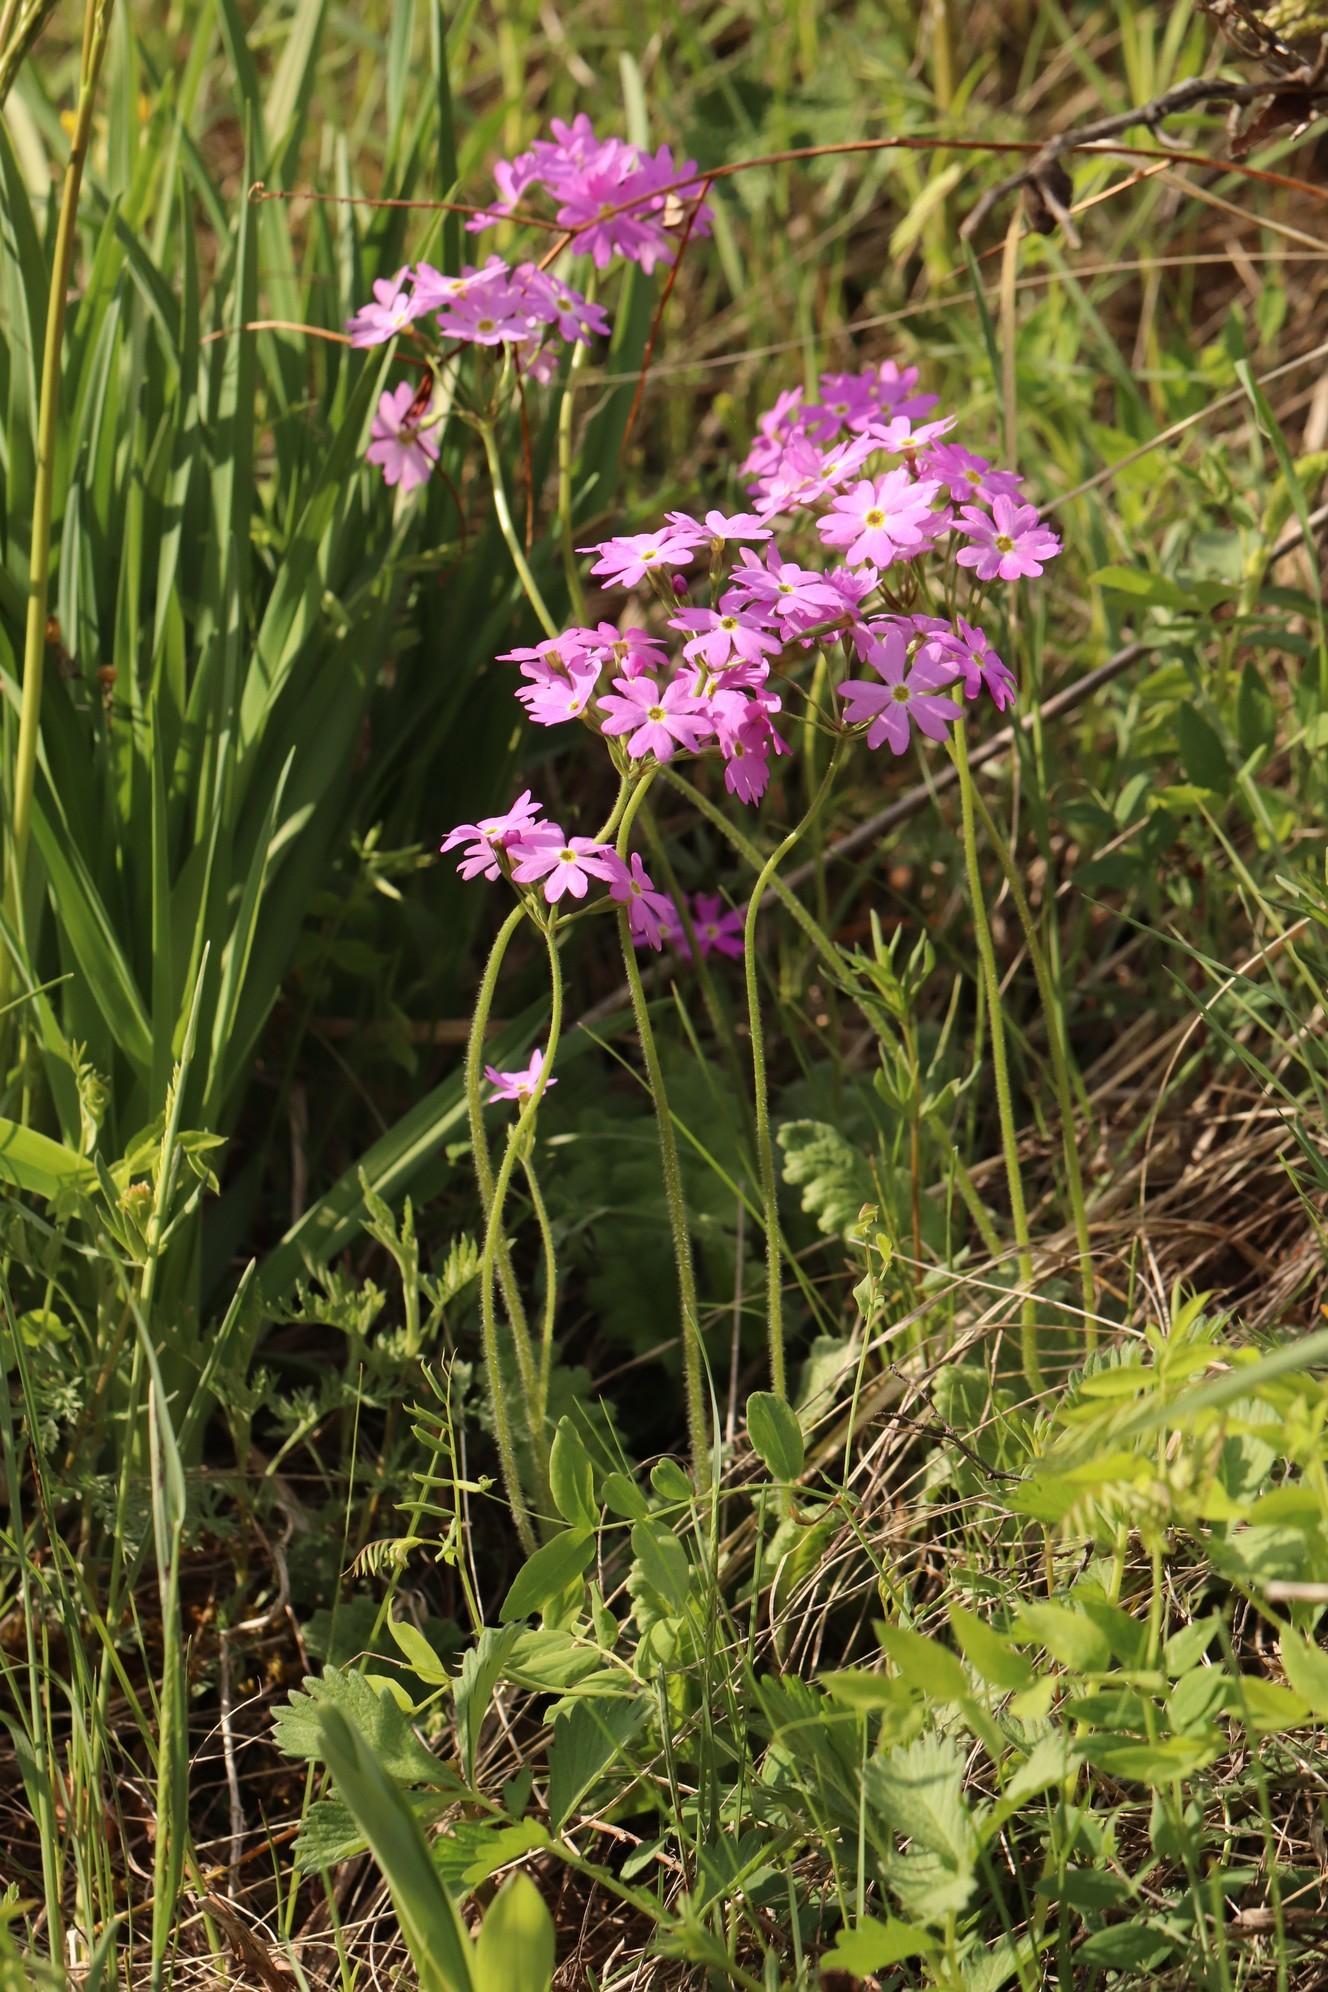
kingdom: Plantae
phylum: Tracheophyta
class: Magnoliopsida
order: Ericales
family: Primulaceae
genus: Primula
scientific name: Primula cortusoides
